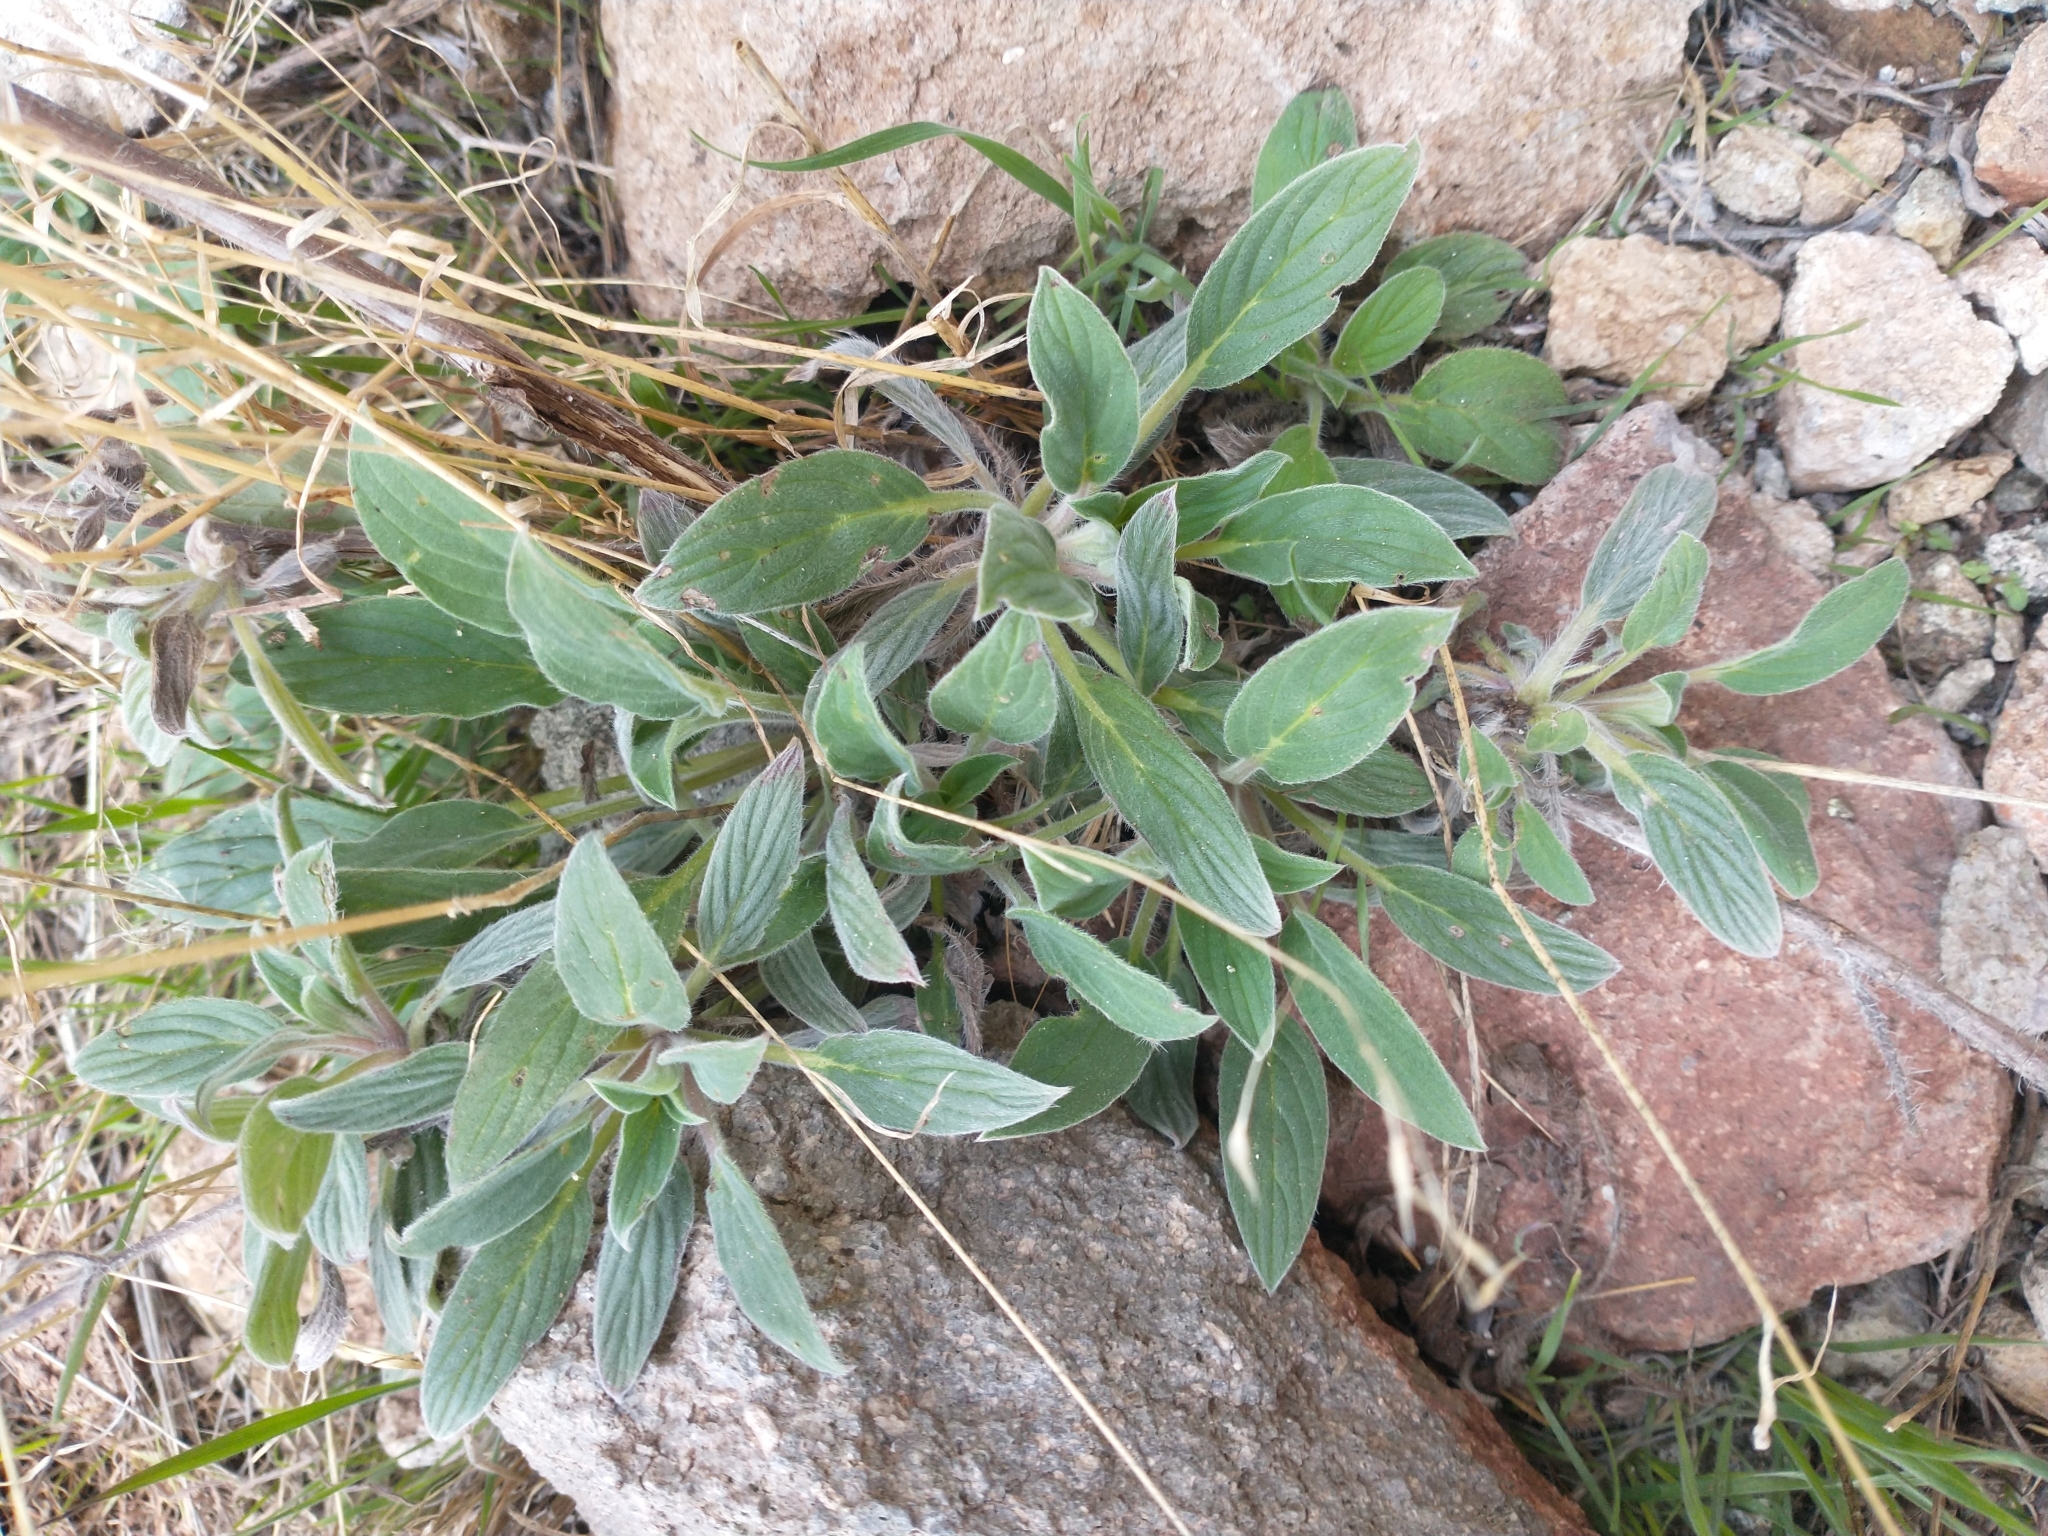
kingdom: Plantae
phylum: Tracheophyta
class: Magnoliopsida
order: Boraginales
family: Hydrophyllaceae
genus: Phacelia
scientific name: Phacelia hastata
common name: Silver-leaved phacelia
